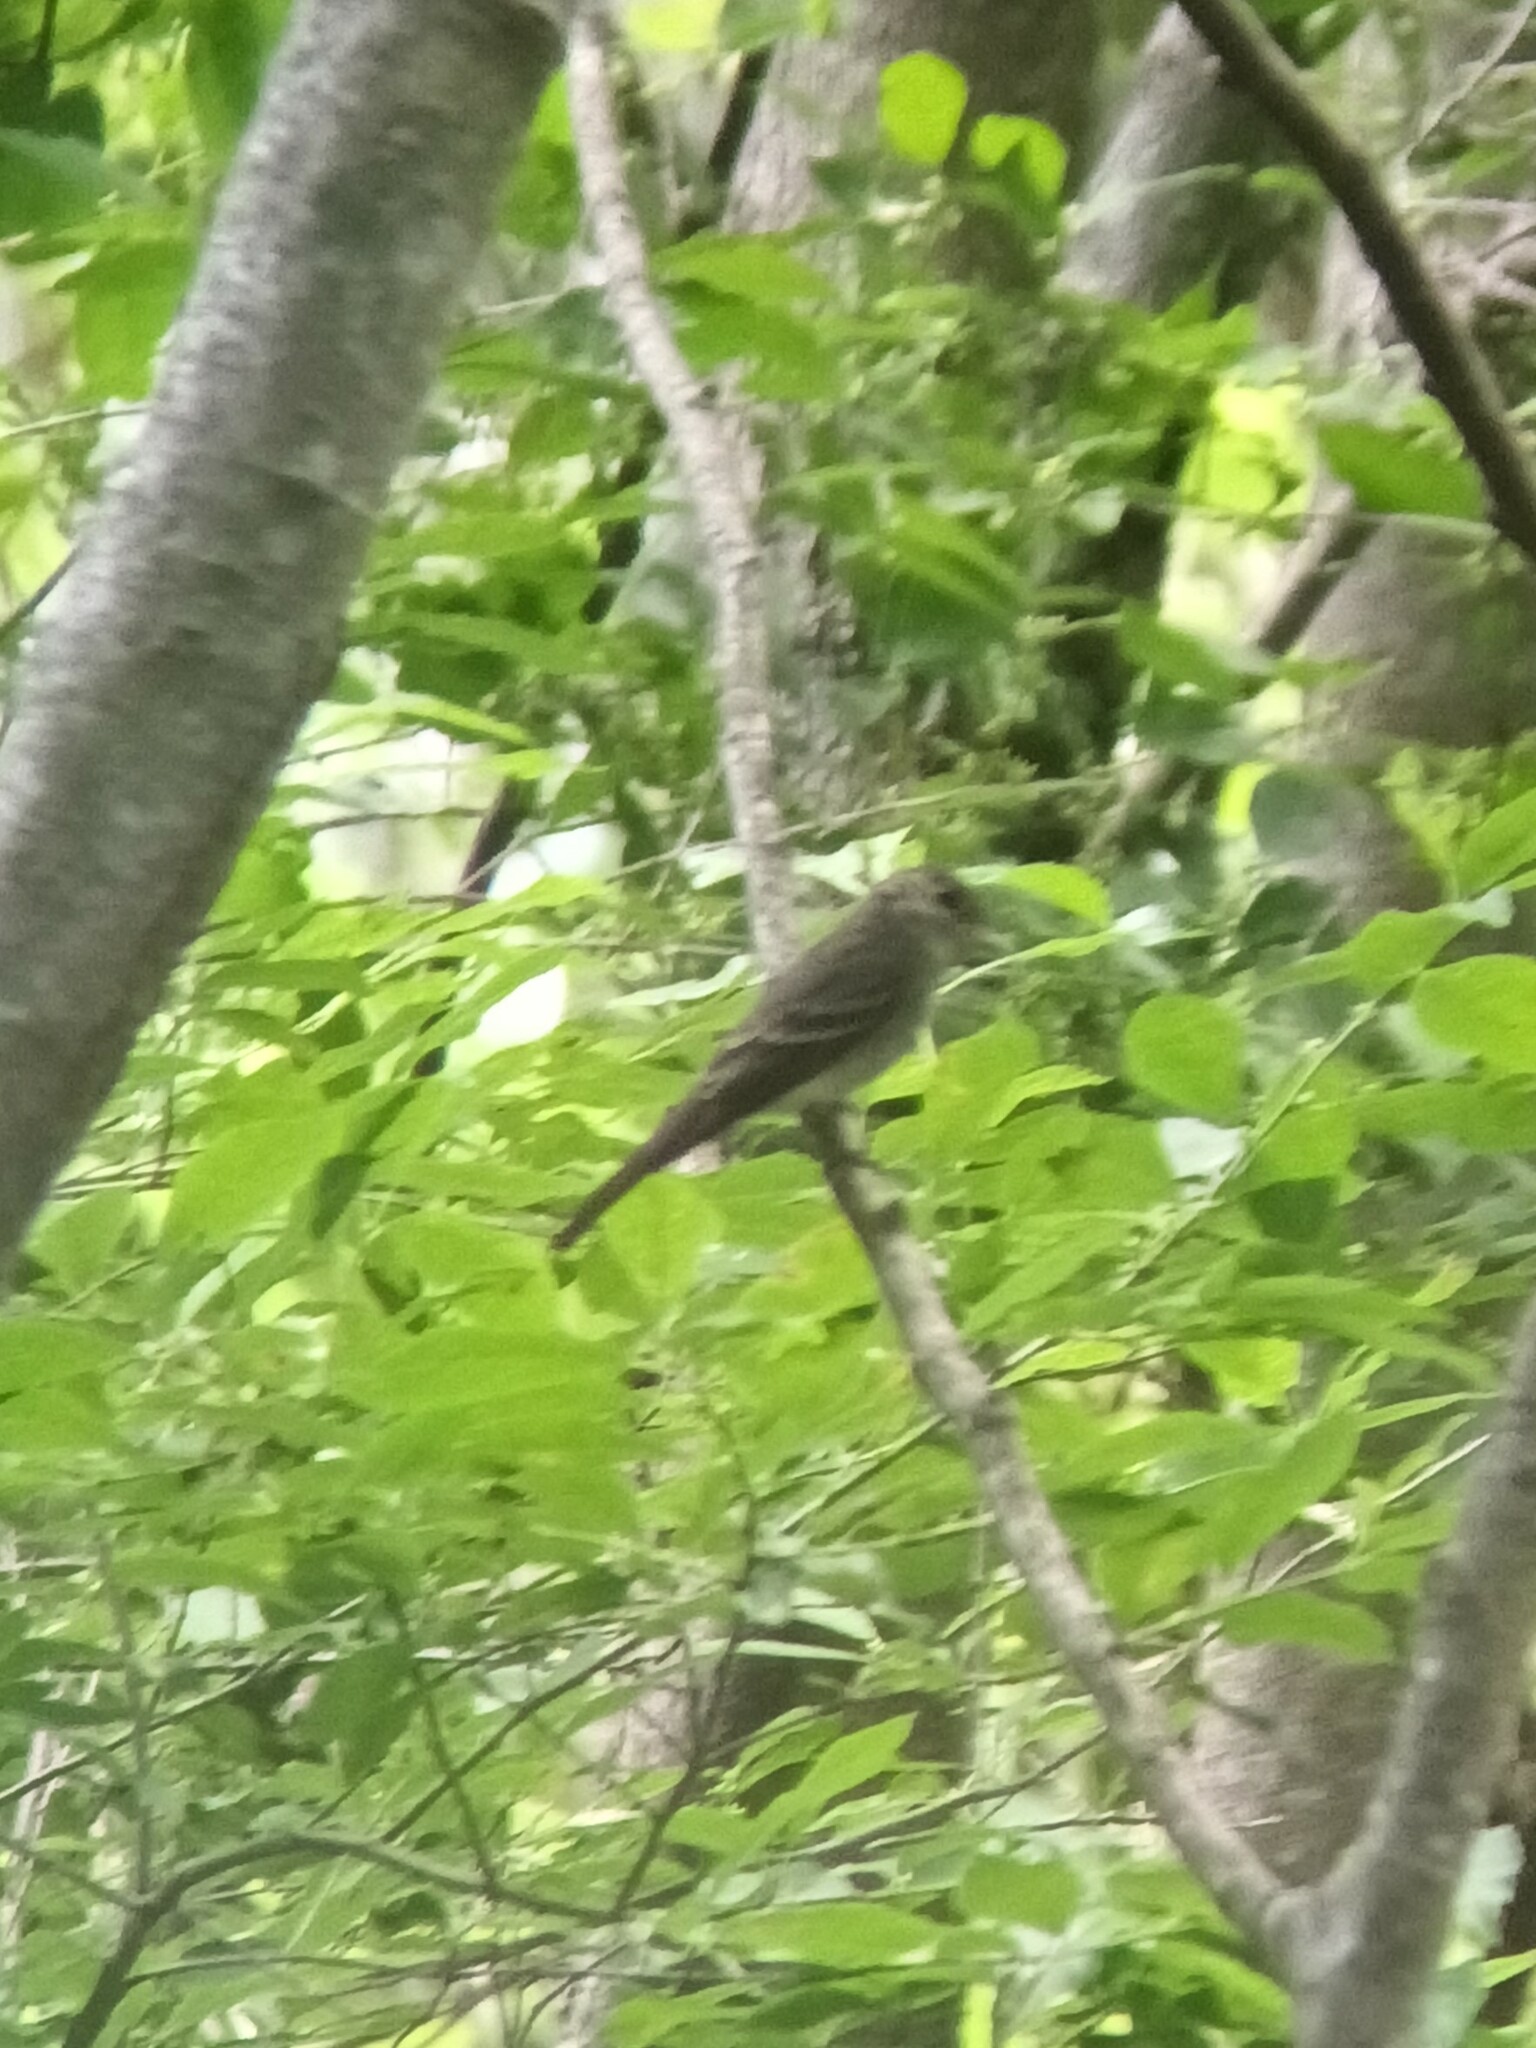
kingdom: Animalia
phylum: Chordata
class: Aves
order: Passeriformes
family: Tyrannidae
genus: Contopus
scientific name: Contopus virens
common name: Eastern wood-pewee
